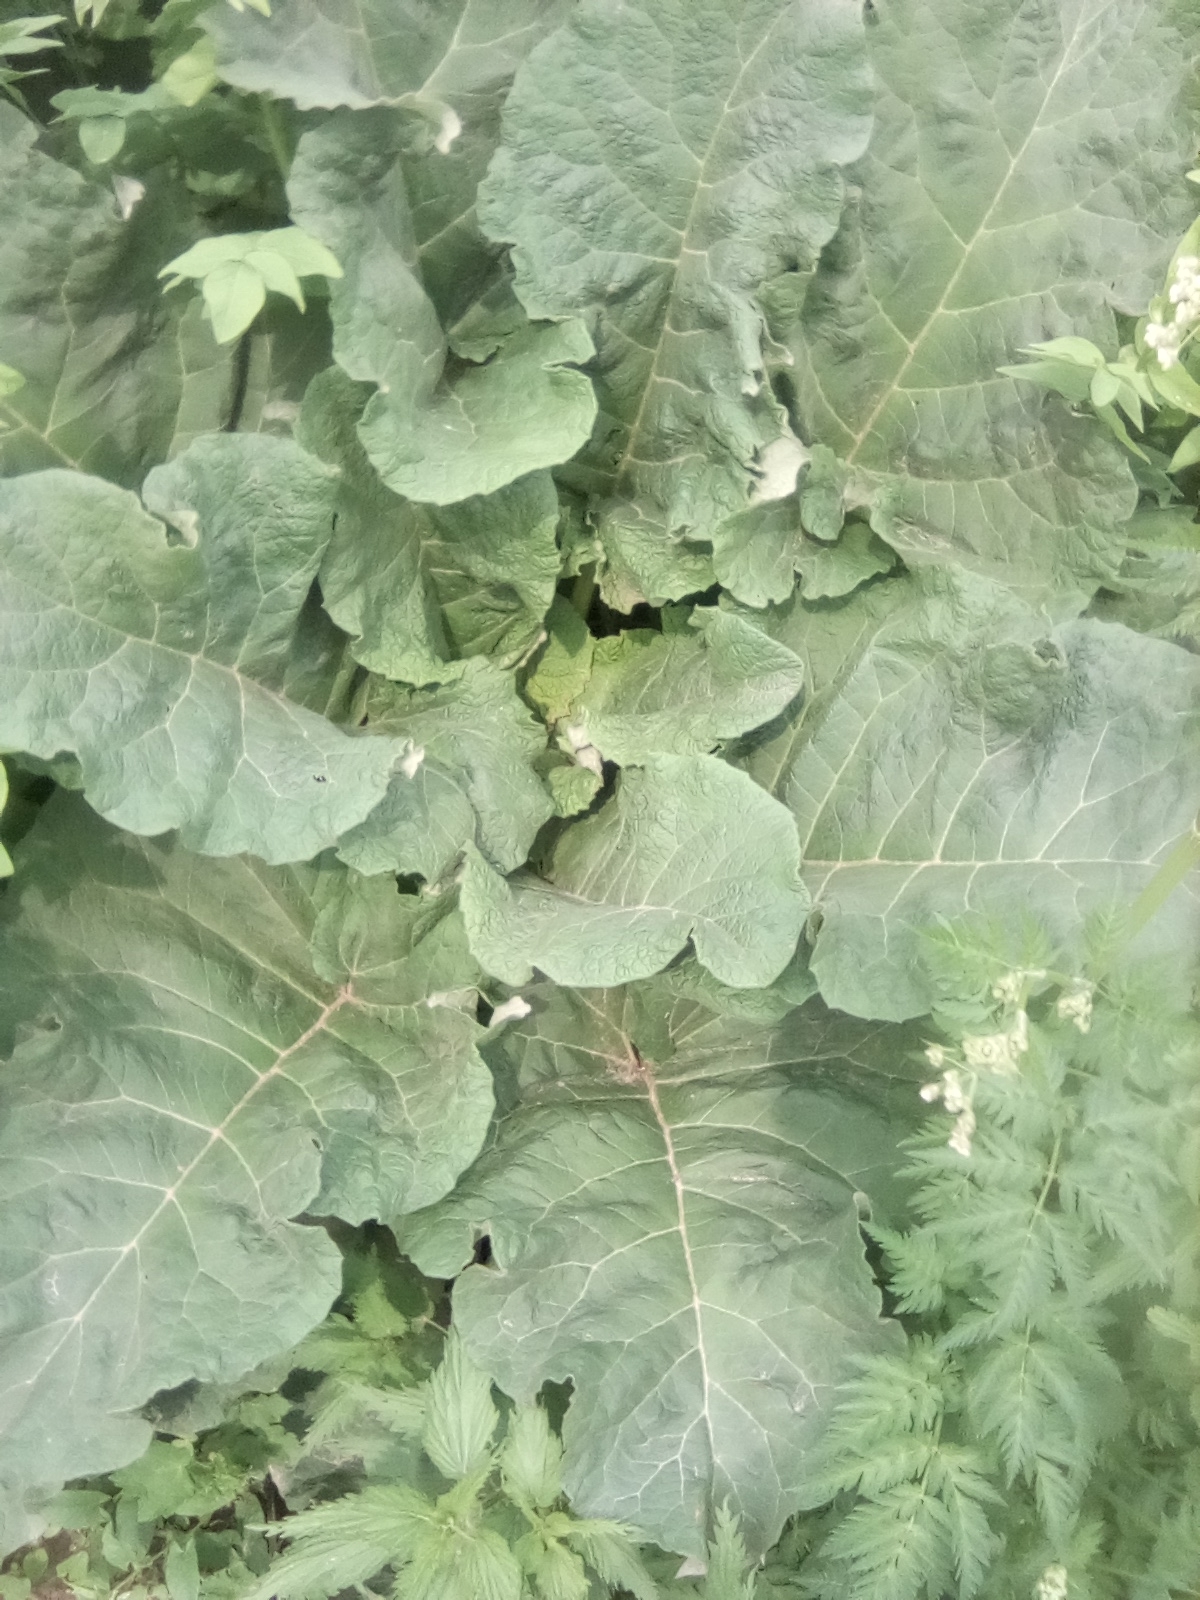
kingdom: Plantae
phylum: Tracheophyta
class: Magnoliopsida
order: Asterales
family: Asteraceae
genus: Arctium
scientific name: Arctium tomentosum
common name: Woolly burdock
